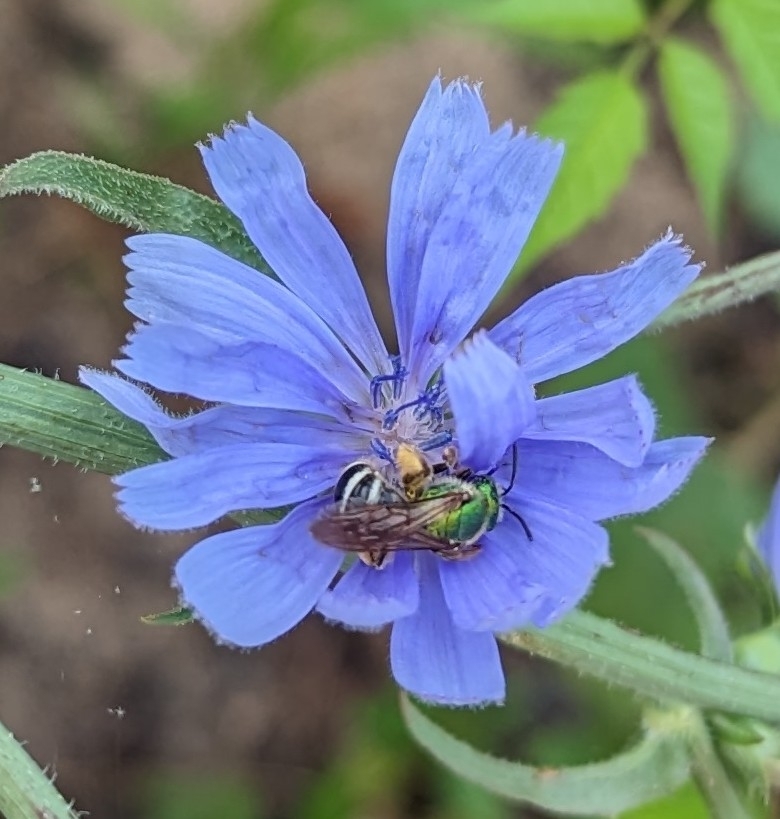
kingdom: Animalia
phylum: Arthropoda
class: Insecta
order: Hymenoptera
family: Halictidae
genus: Agapostemon
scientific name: Agapostemon virescens
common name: Bicolored striped sweat bee
